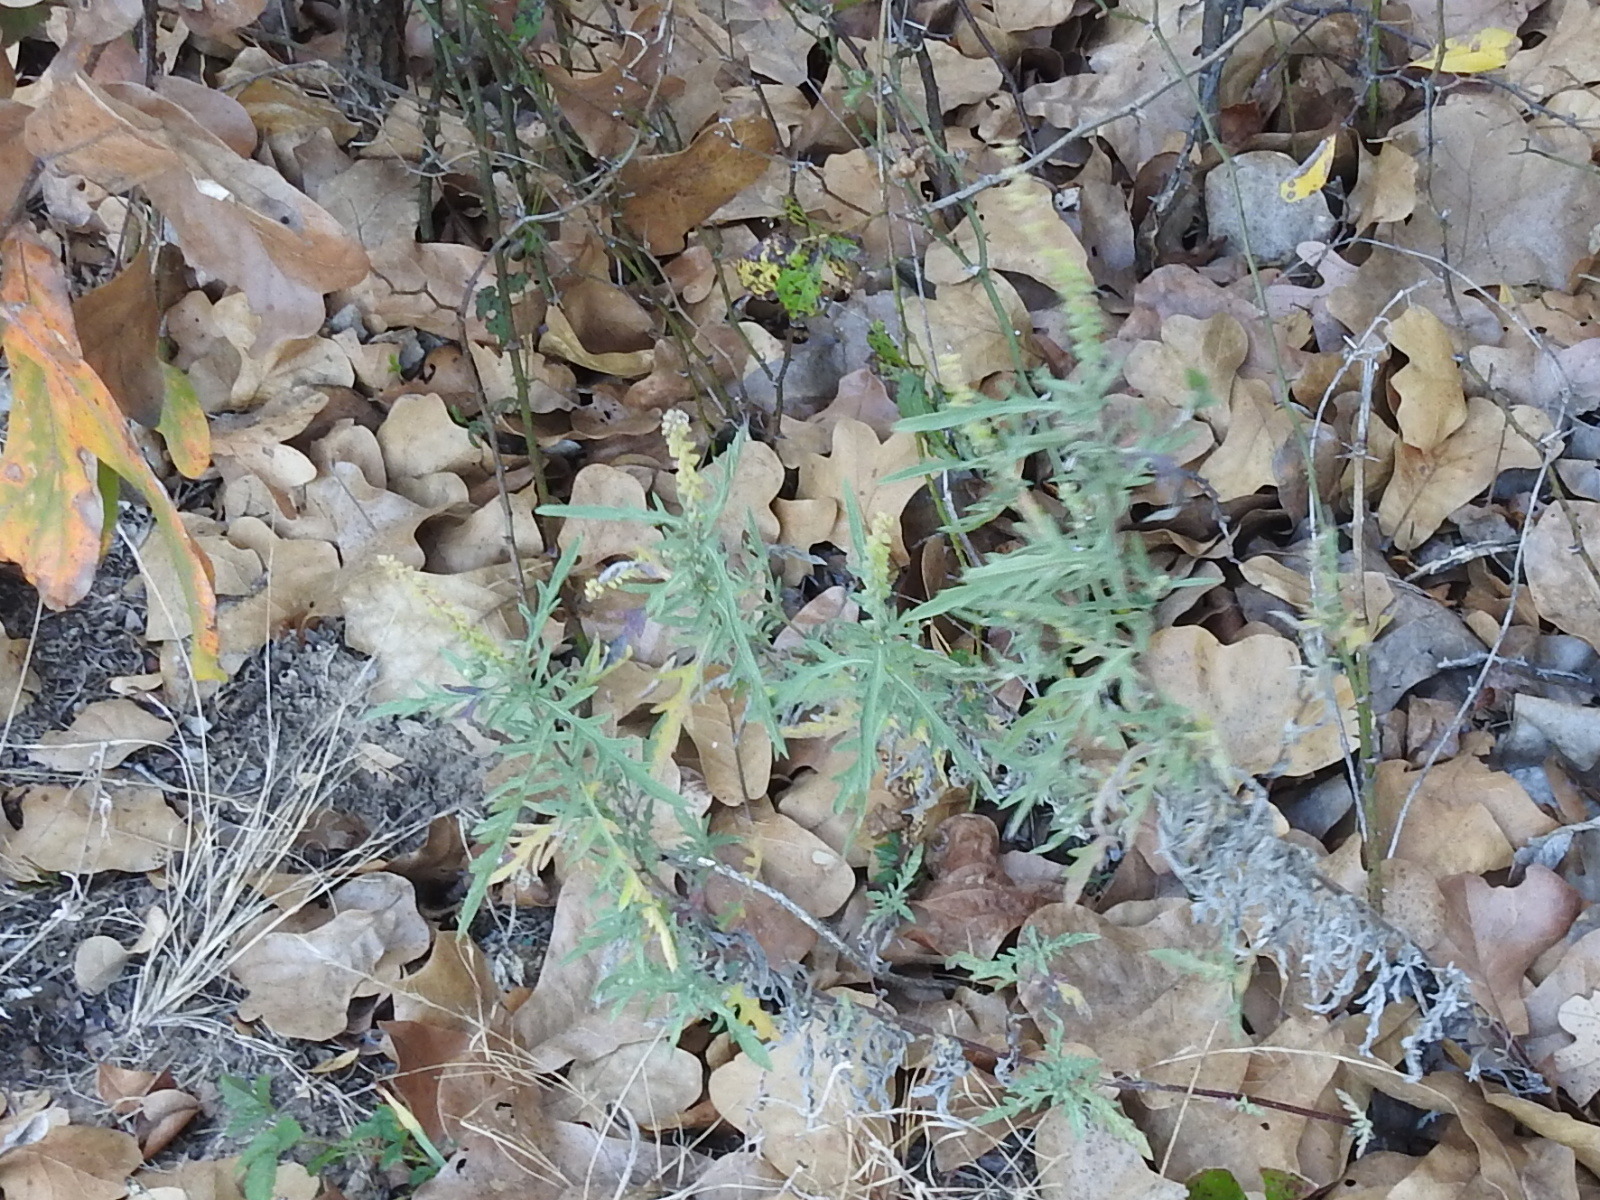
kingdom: Plantae
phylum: Tracheophyta
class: Magnoliopsida
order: Asterales
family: Asteraceae
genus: Ambrosia
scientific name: Ambrosia psilostachya
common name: Perennial ragweed
